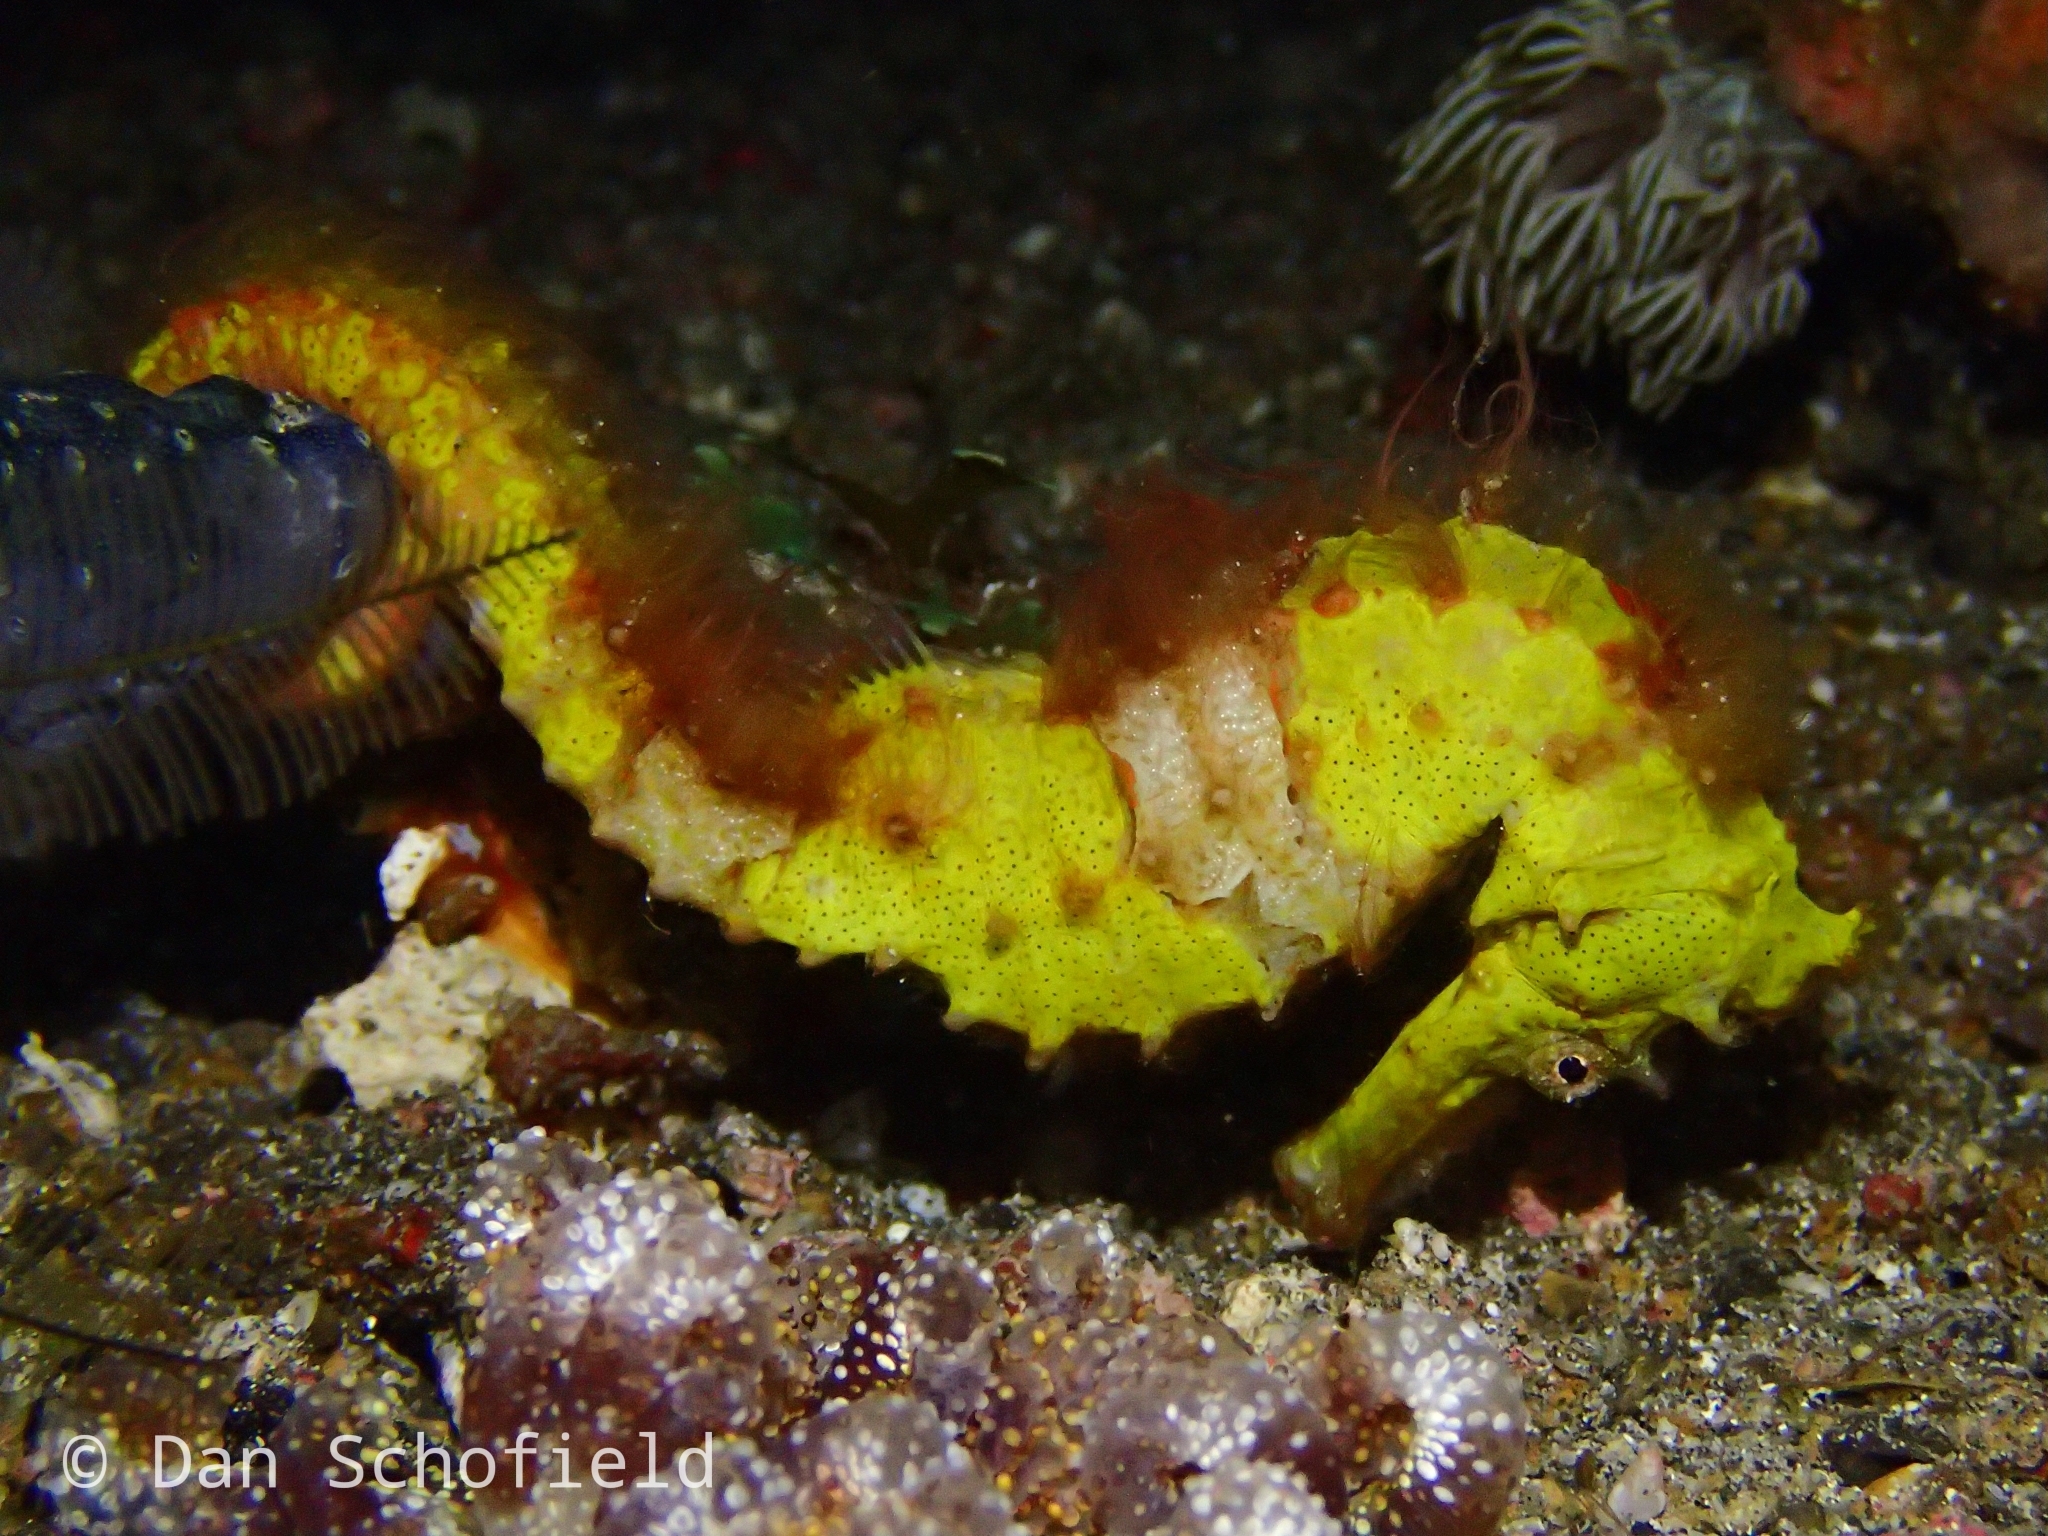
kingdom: Animalia
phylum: Chordata
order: Syngnathiformes
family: Syngnathidae
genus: Hippocampus
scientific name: Hippocampus spinosissimus
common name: Hedgehog seahorse
